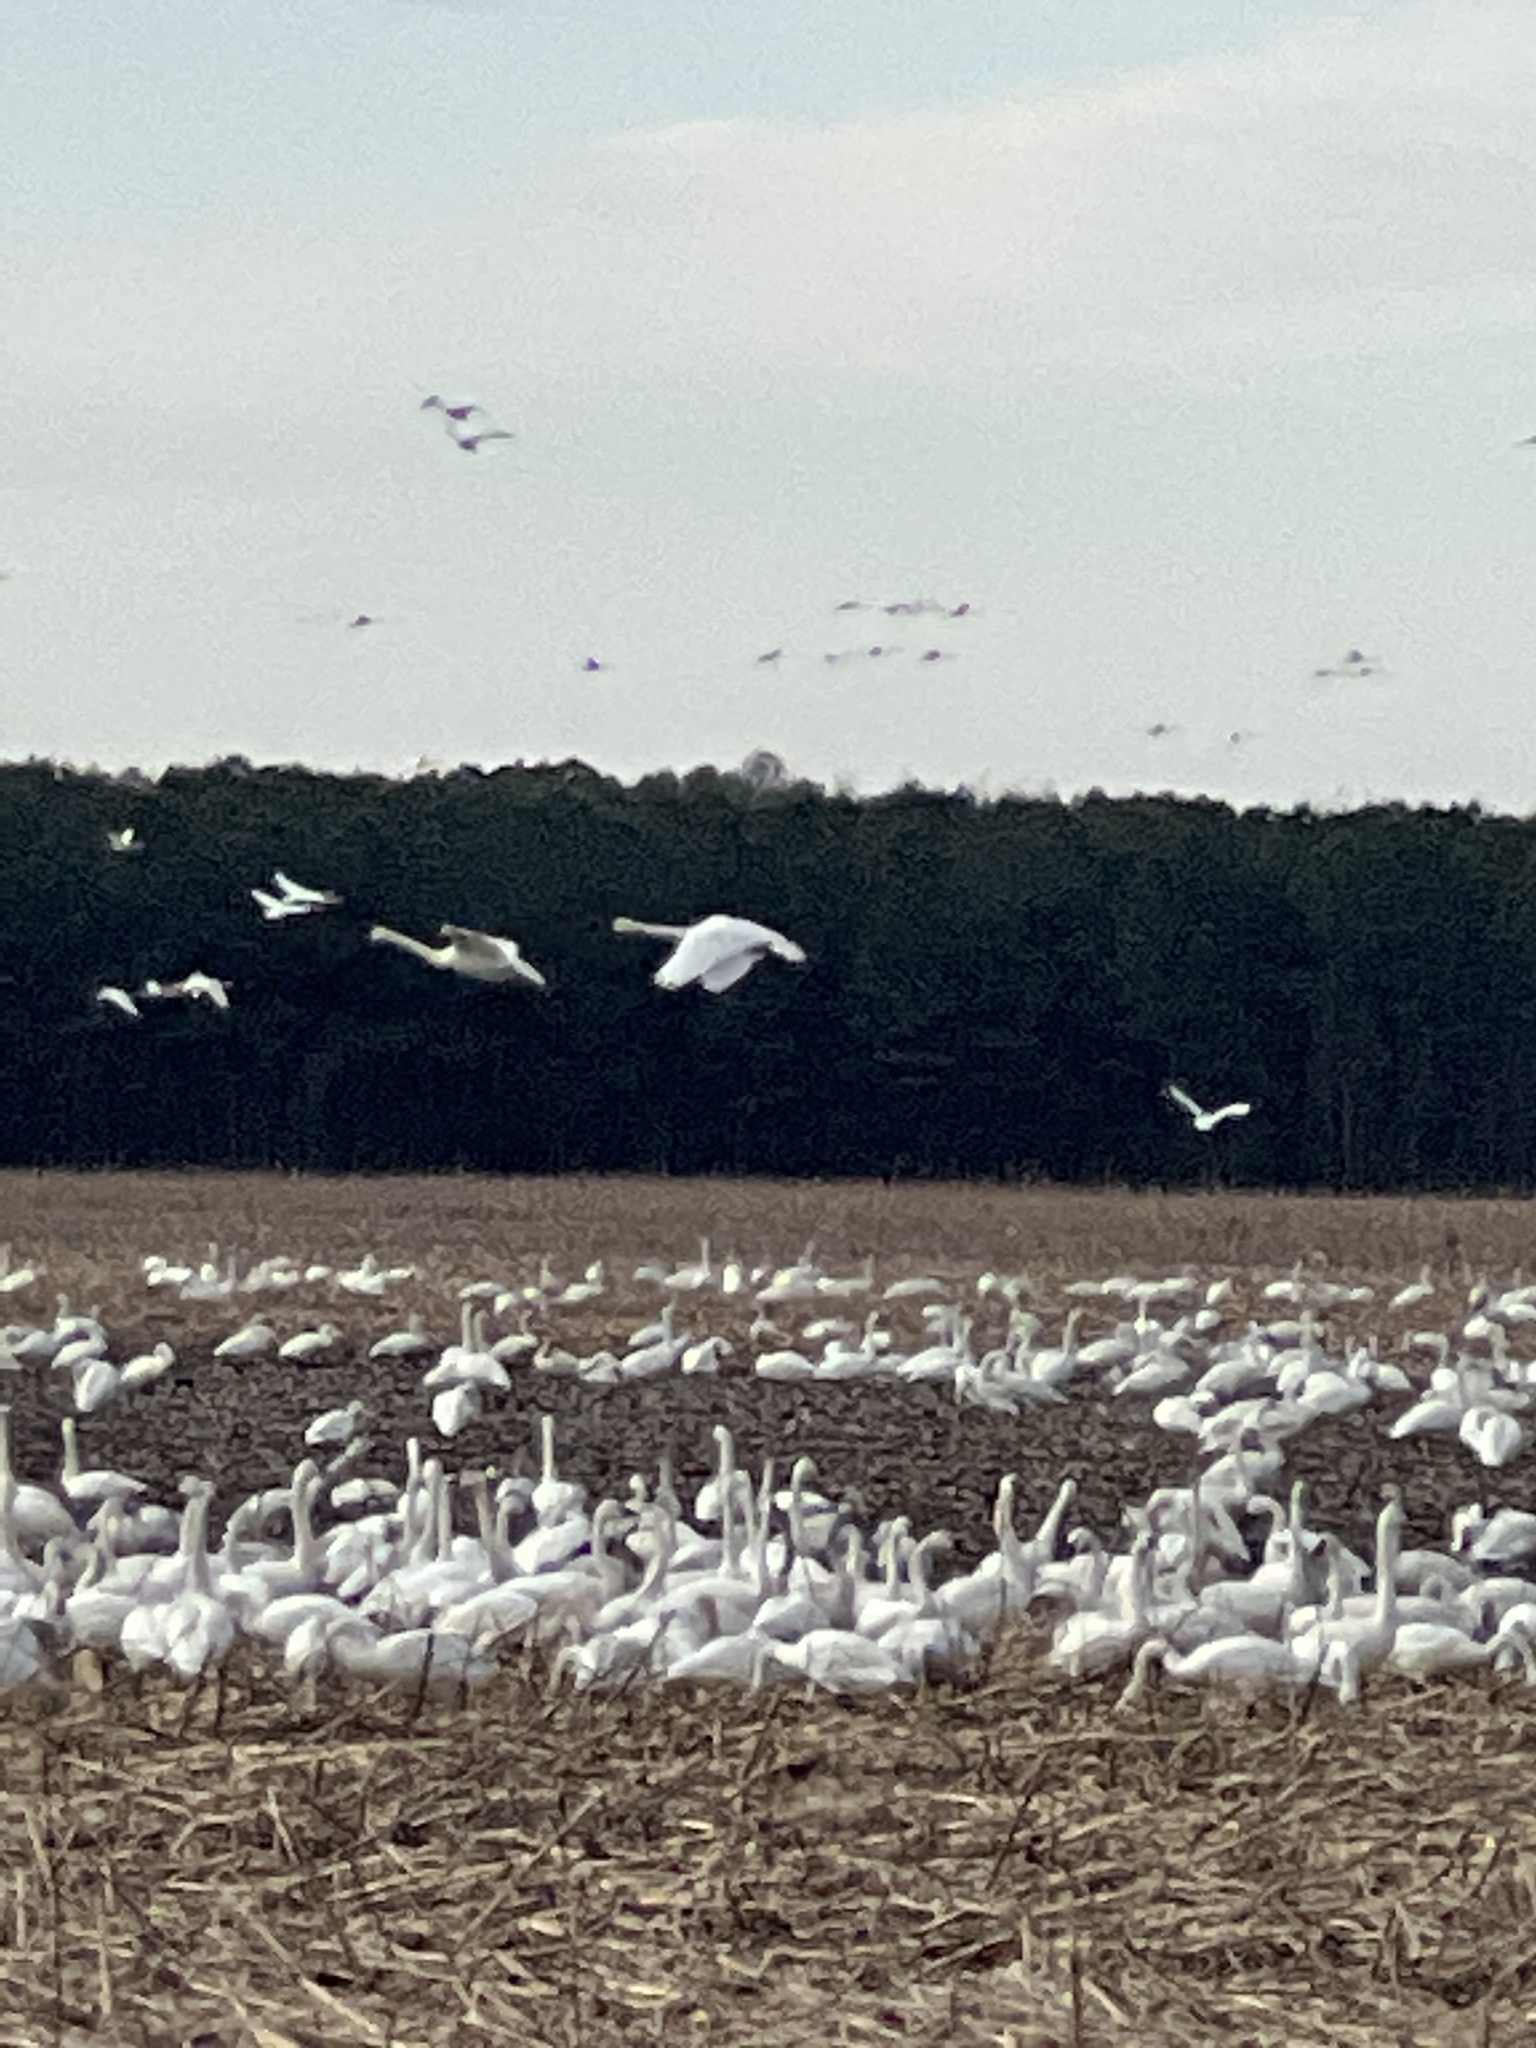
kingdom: Animalia
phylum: Chordata
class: Aves
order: Anseriformes
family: Anatidae
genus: Cygnus
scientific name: Cygnus columbianus
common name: Tundra swan
